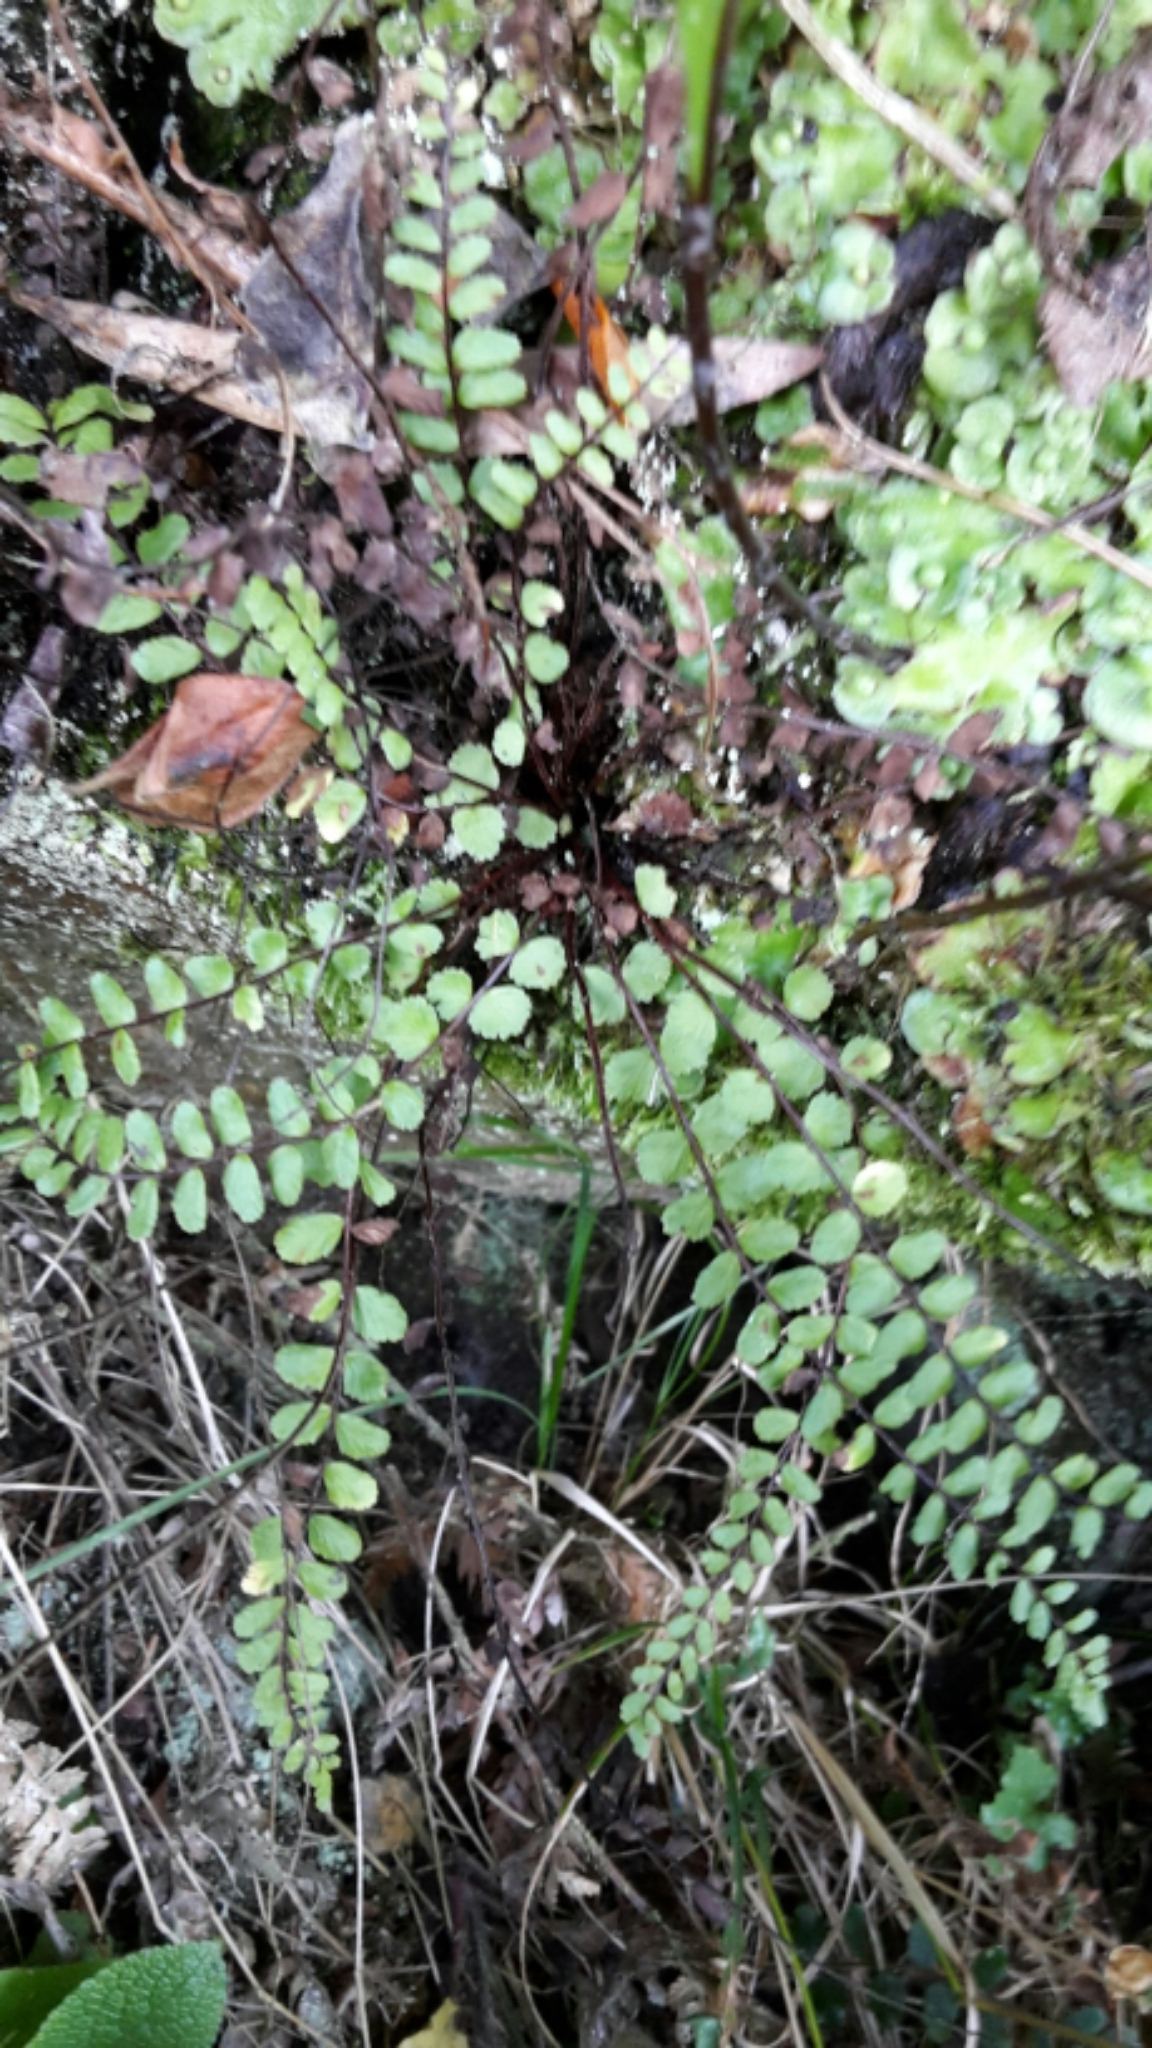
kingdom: Plantae
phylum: Tracheophyta
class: Polypodiopsida
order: Polypodiales
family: Aspleniaceae
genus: Asplenium
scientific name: Asplenium trichomanes
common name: Maidenhair spleenwort
